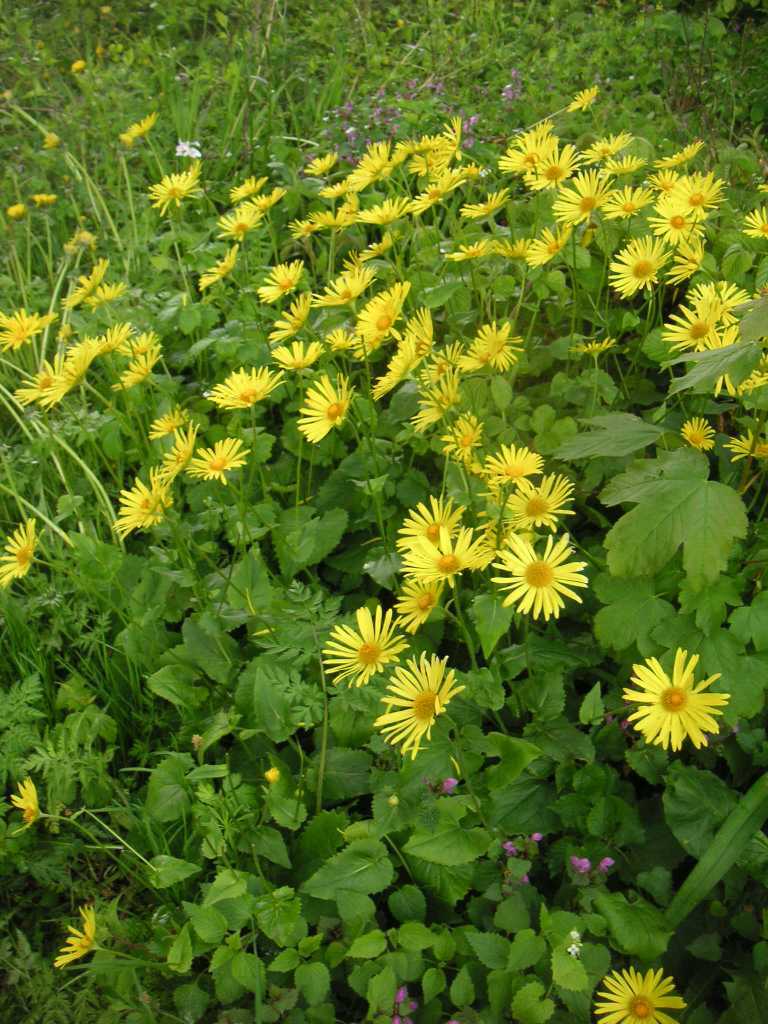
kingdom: Plantae
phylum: Tracheophyta
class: Magnoliopsida
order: Asterales
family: Asteraceae
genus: Doronicum
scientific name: Doronicum columnae
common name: Eastern leopard's-bane
